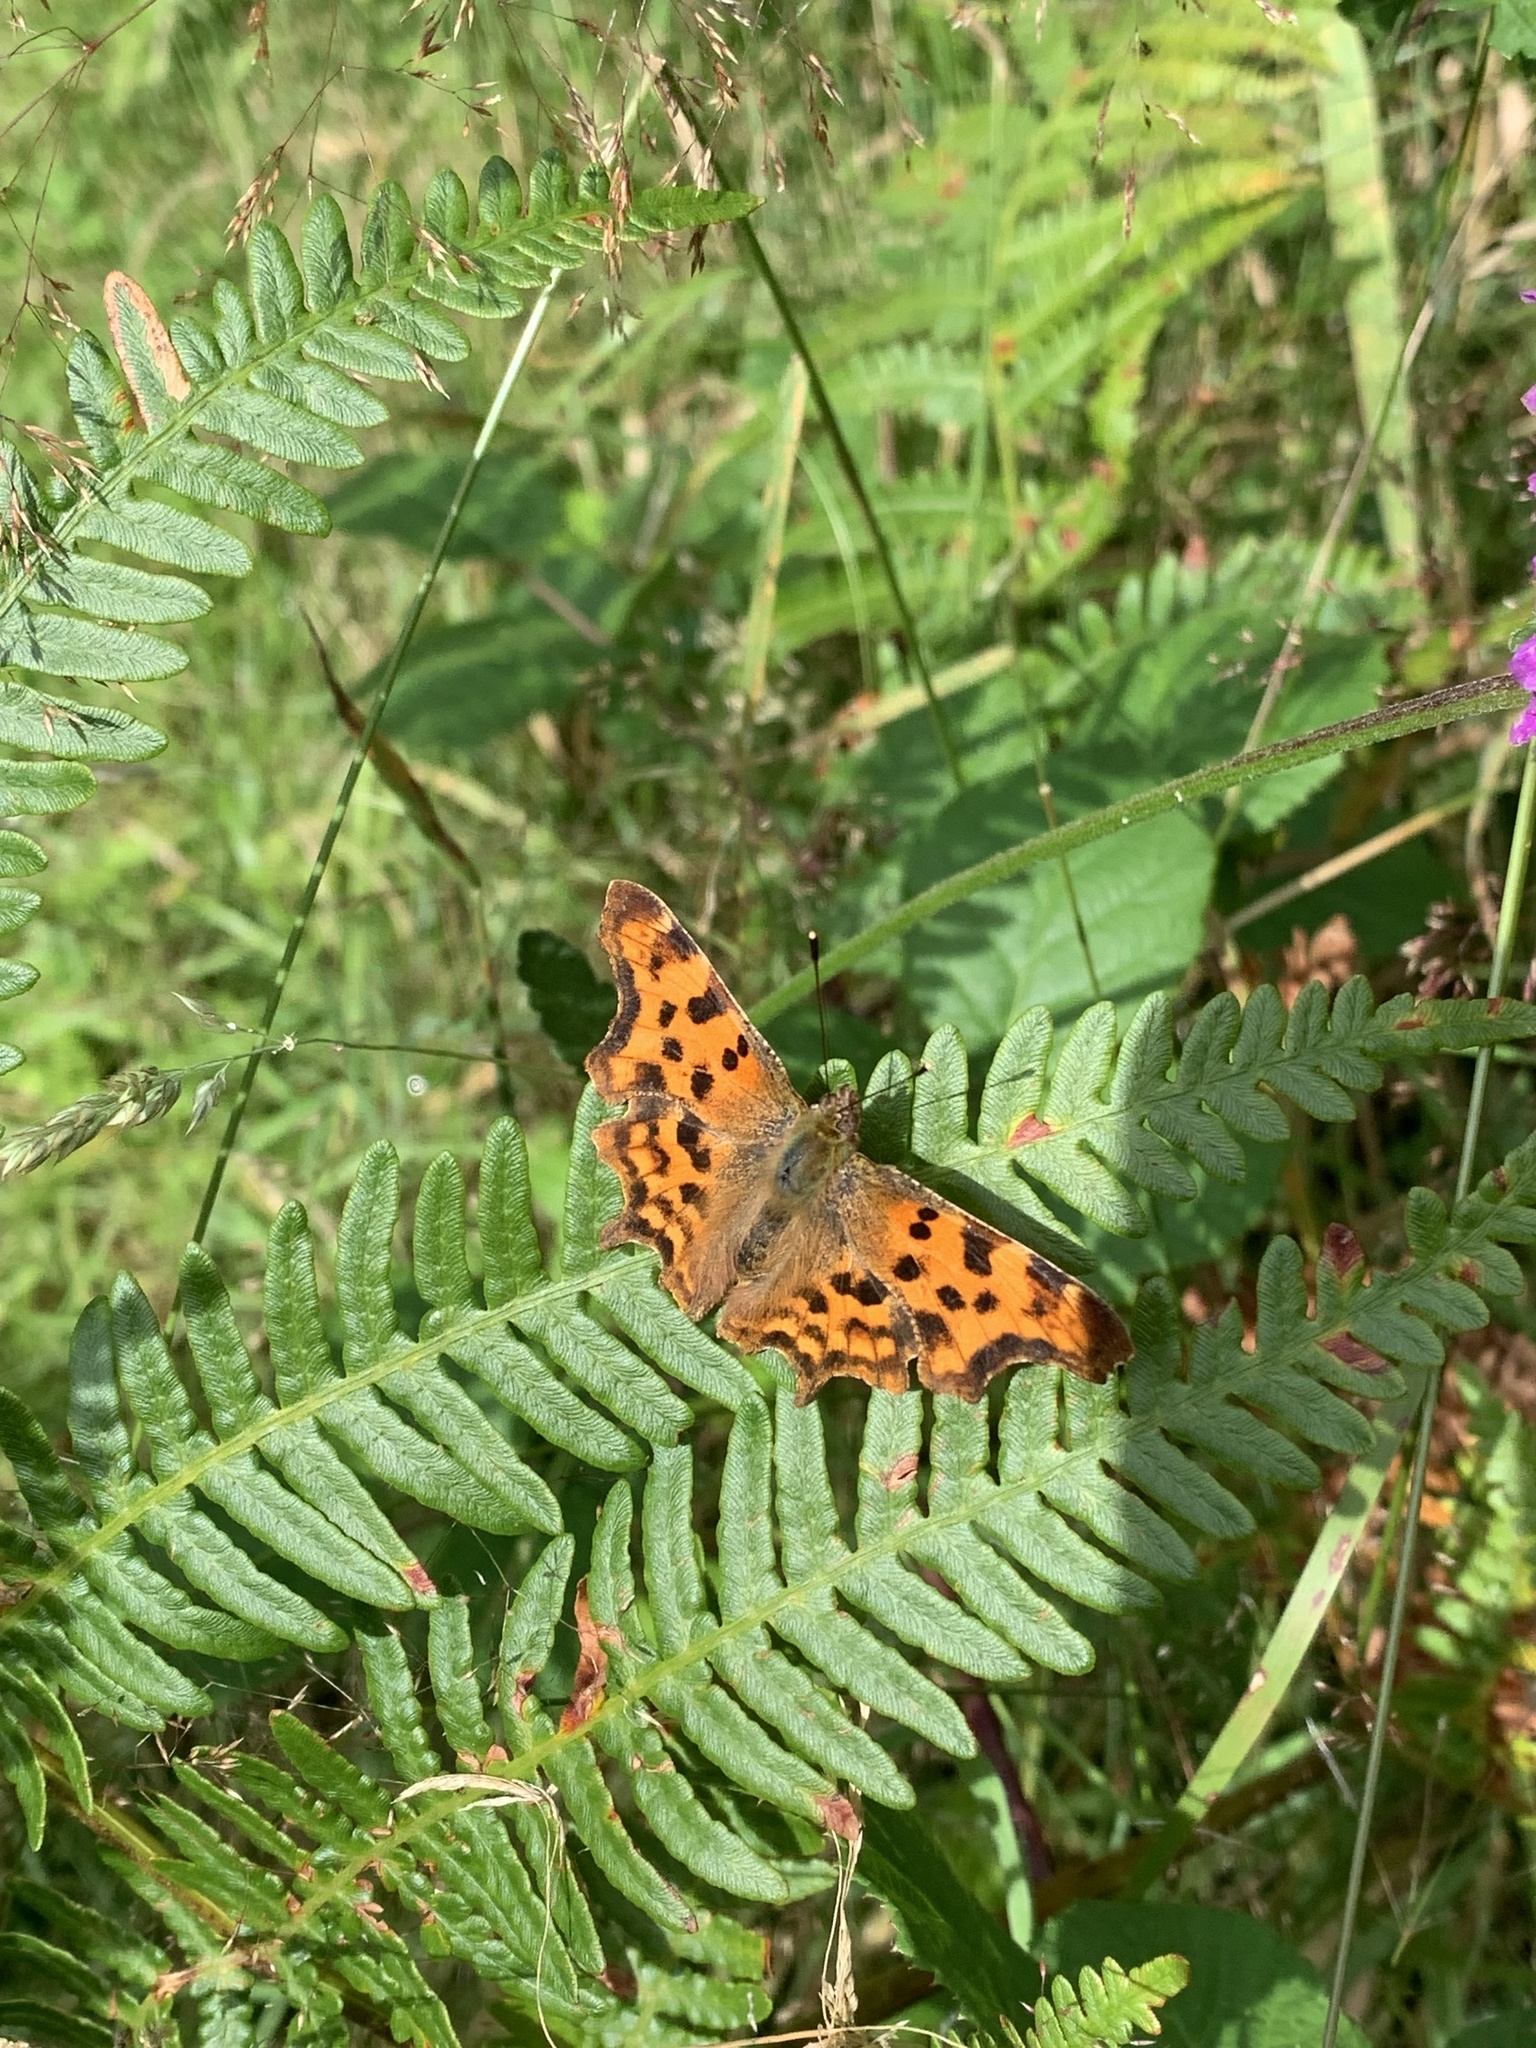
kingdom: Animalia
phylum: Arthropoda
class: Insecta
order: Lepidoptera
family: Nymphalidae
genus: Polygonia
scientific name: Polygonia c-album
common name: Comma
